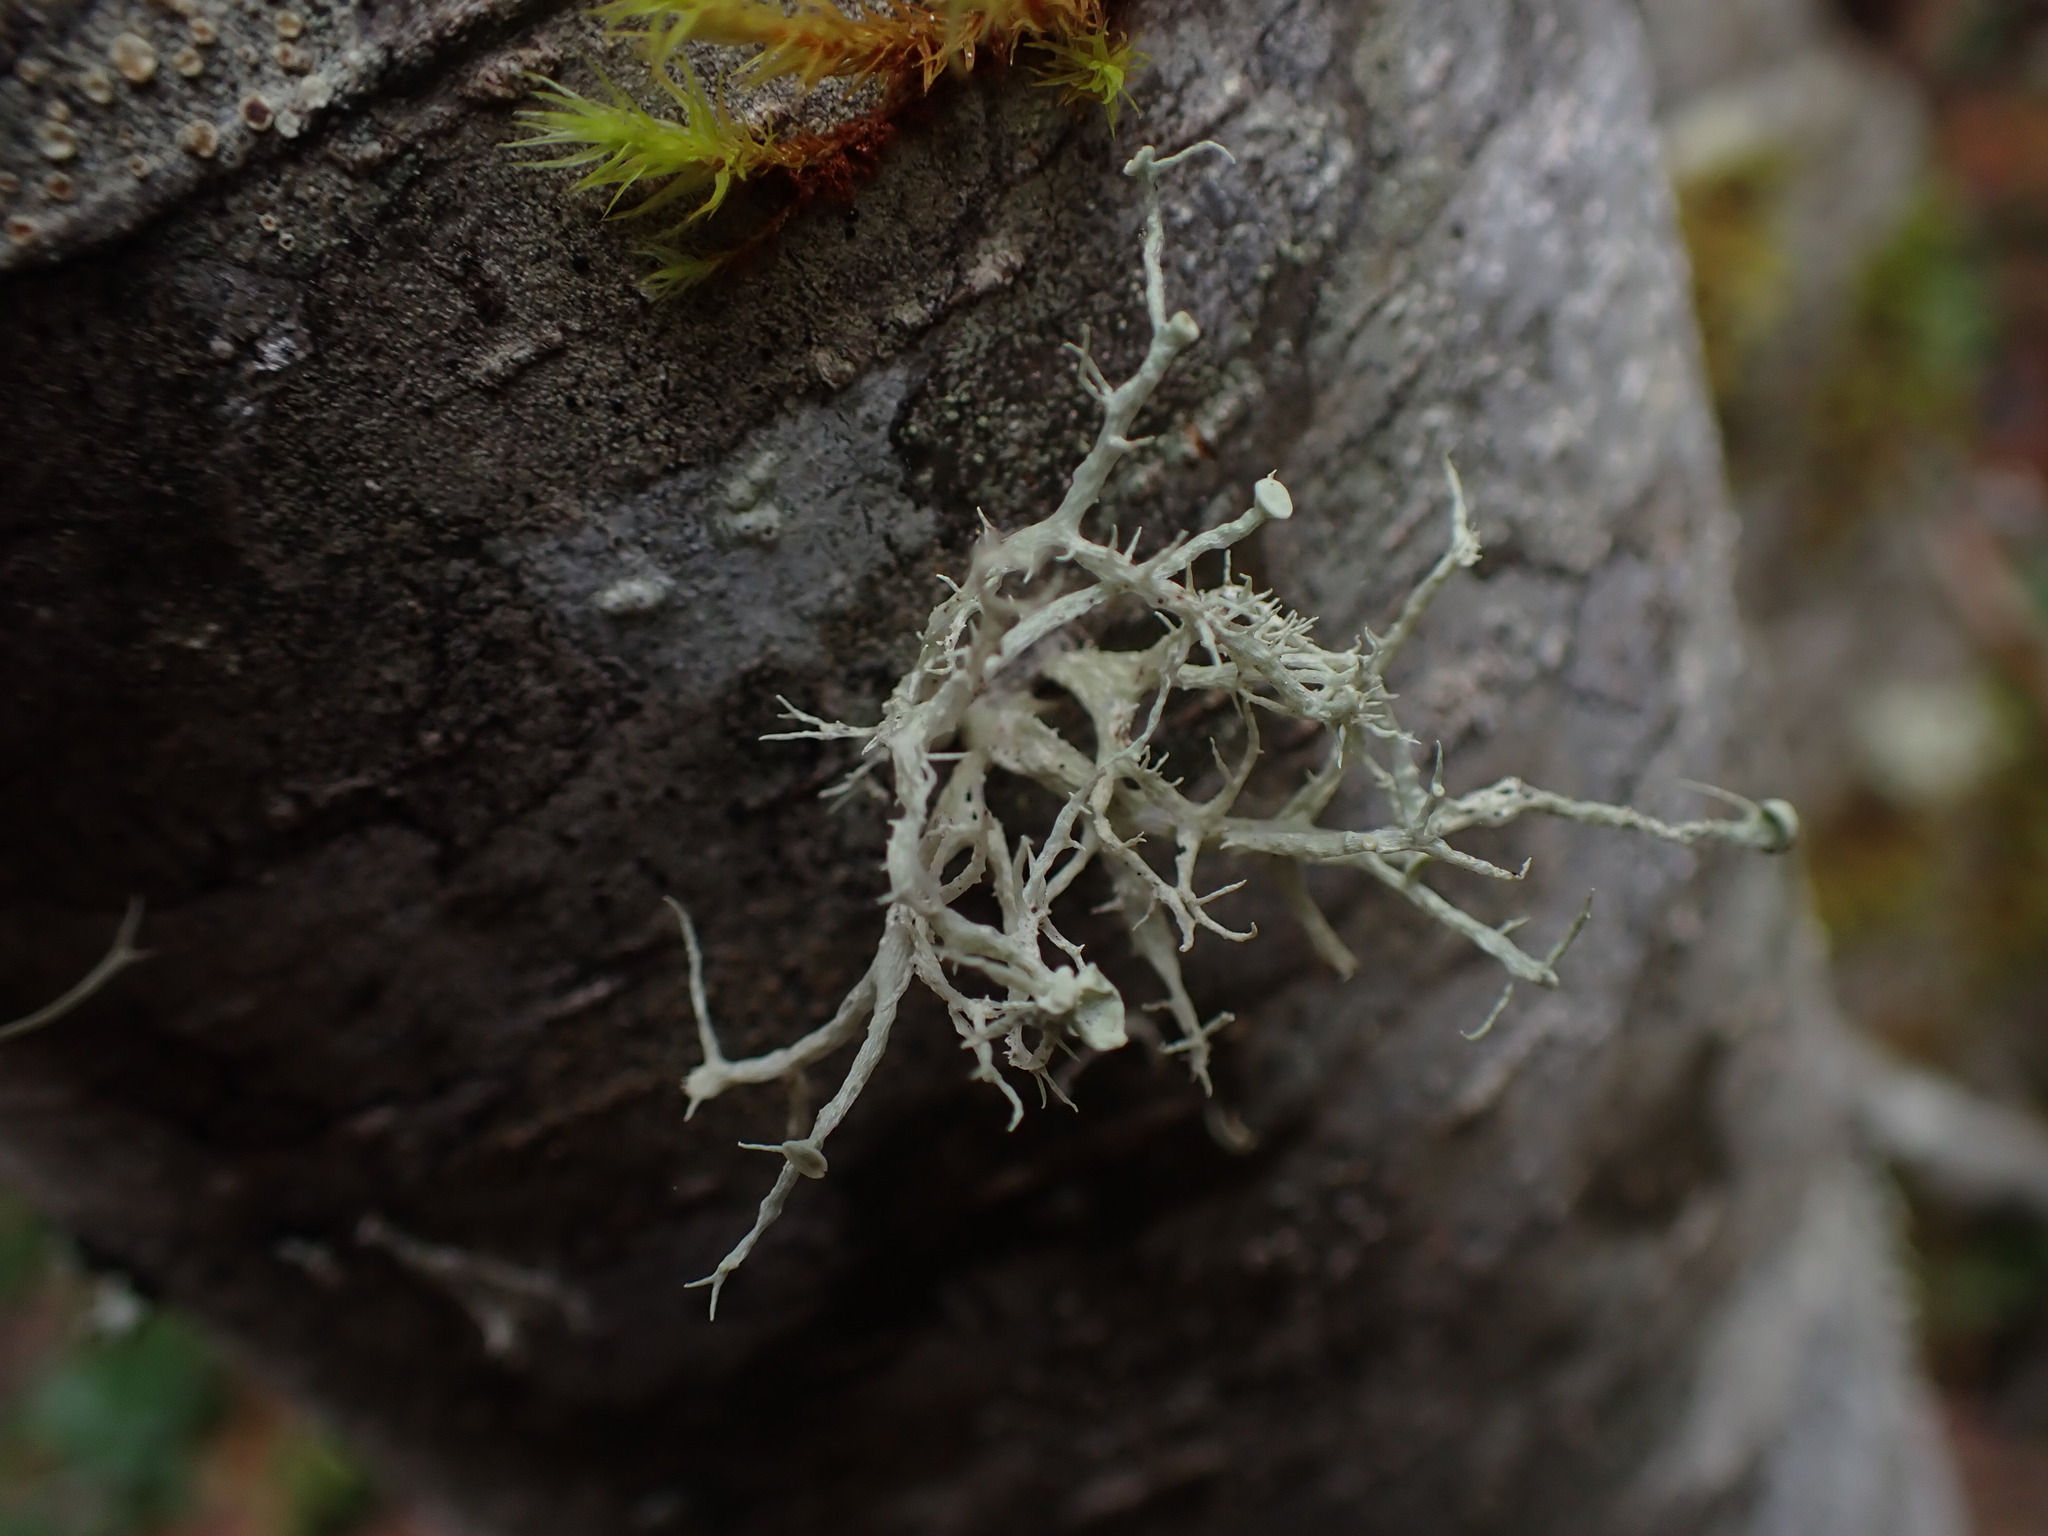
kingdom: Fungi
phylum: Ascomycota
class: Lecanoromycetes
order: Lecanorales
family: Ramalinaceae
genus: Ramalina
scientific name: Ramalina dilacerata
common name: Punctured bushy lichen
